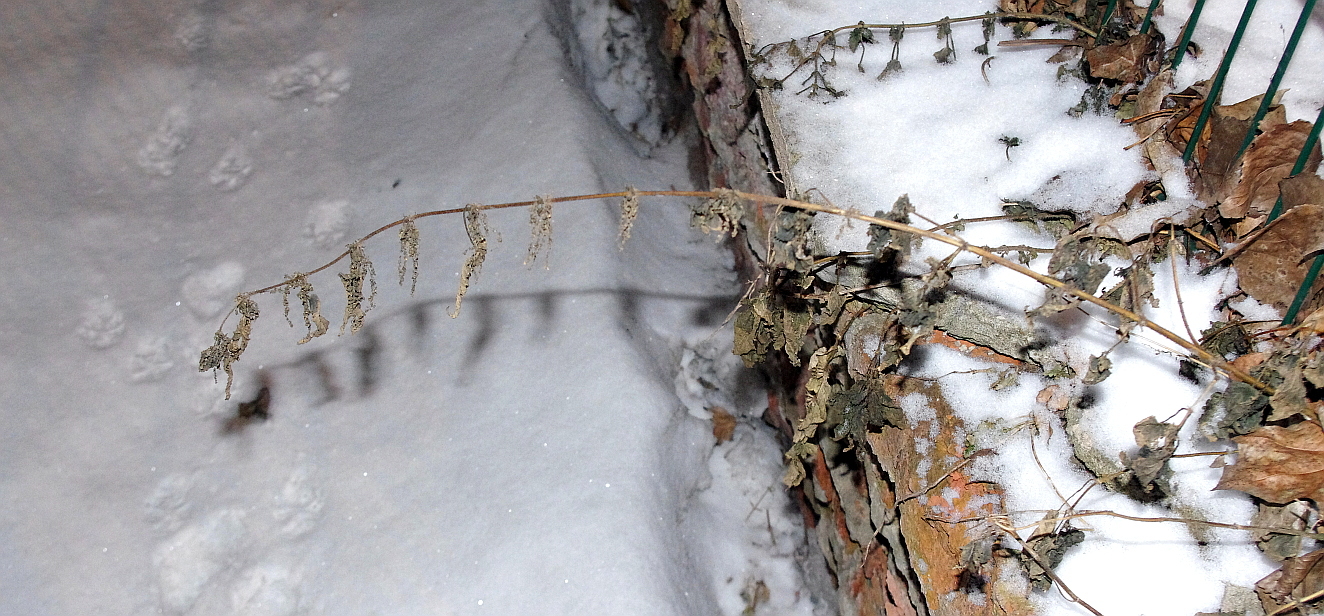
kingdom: Plantae
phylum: Tracheophyta
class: Magnoliopsida
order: Rosales
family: Urticaceae
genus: Urtica
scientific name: Urtica dioica
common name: Common nettle
